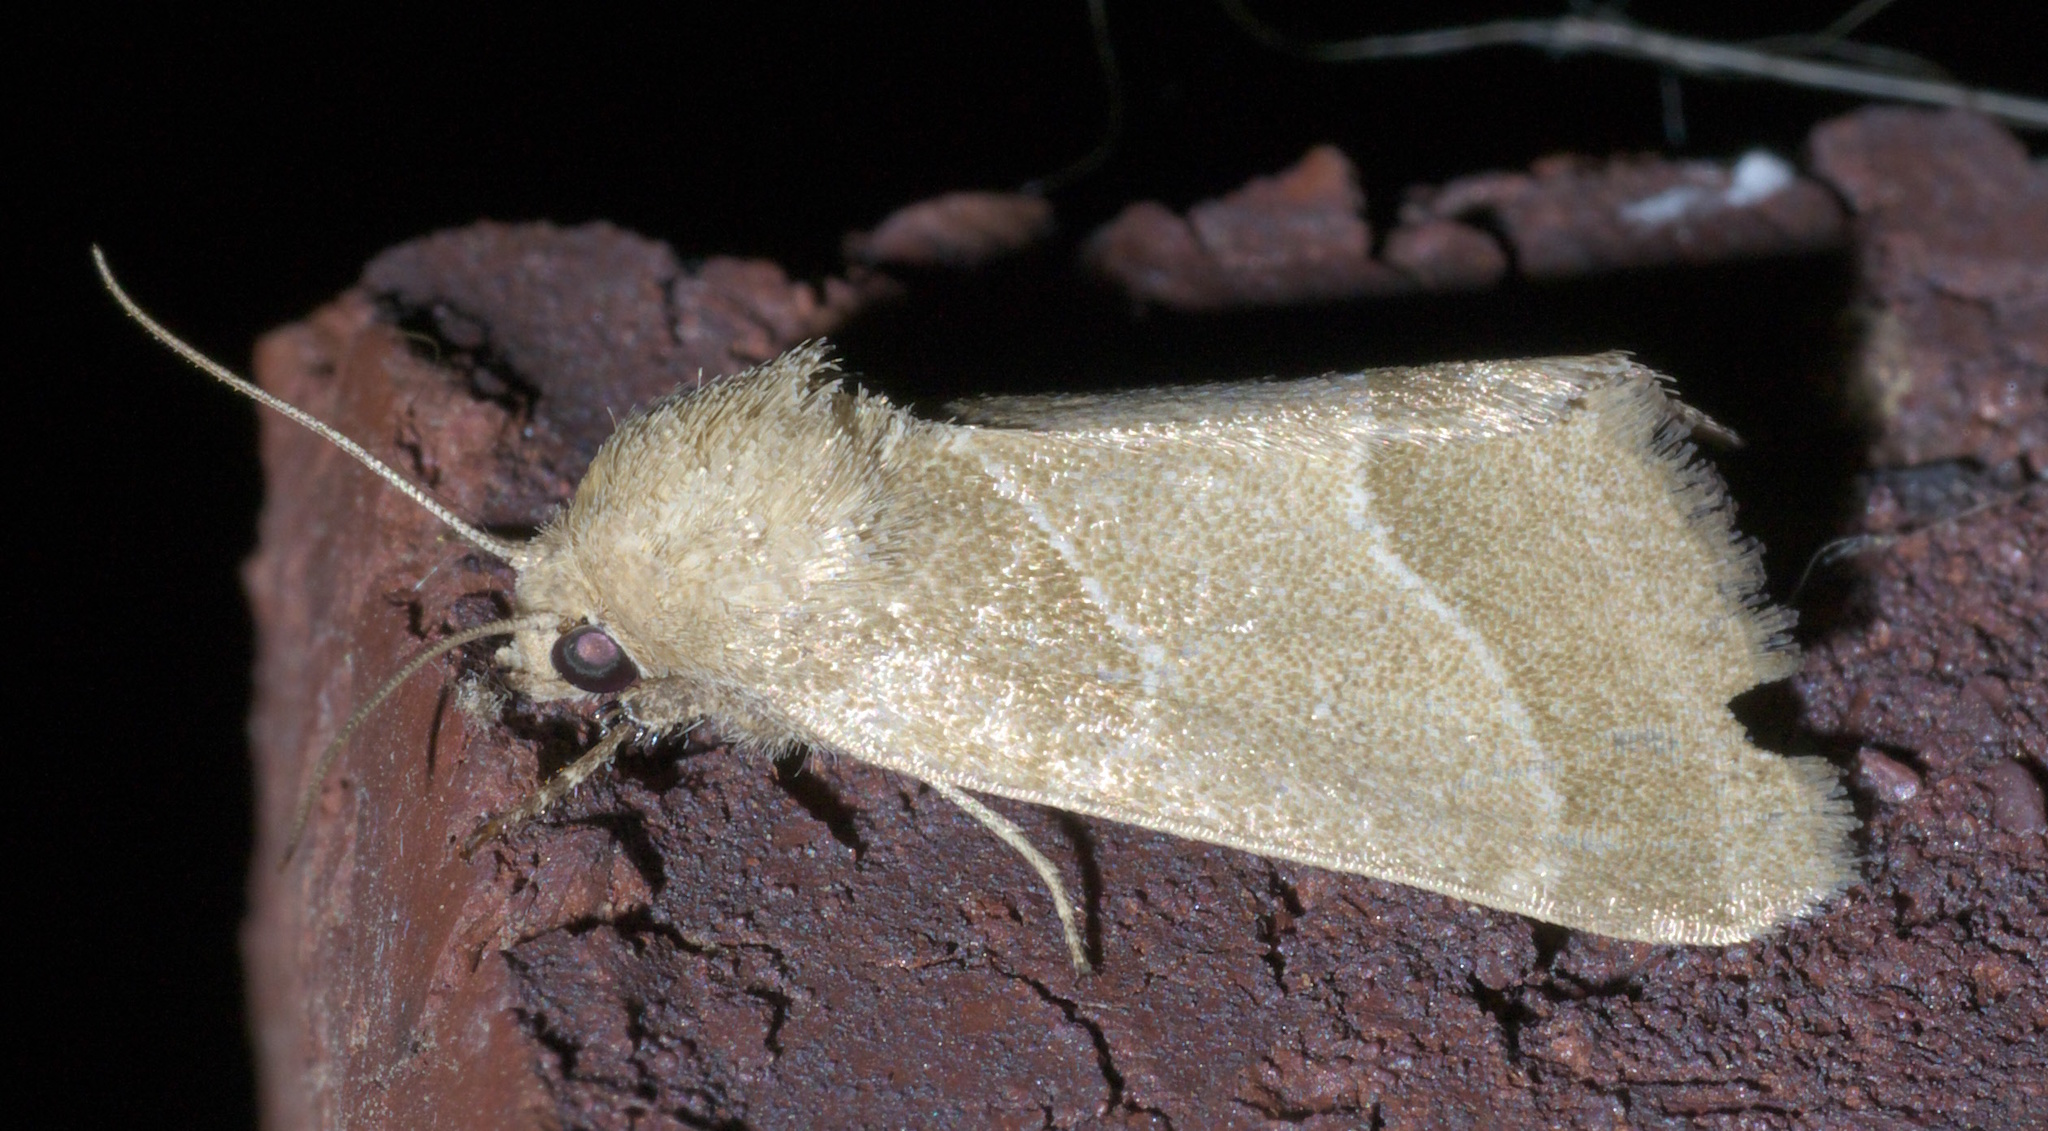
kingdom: Animalia
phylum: Arthropoda
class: Insecta
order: Lepidoptera
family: Noctuidae
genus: Schinia
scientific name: Schinia gracilenta
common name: Slender flower moth
